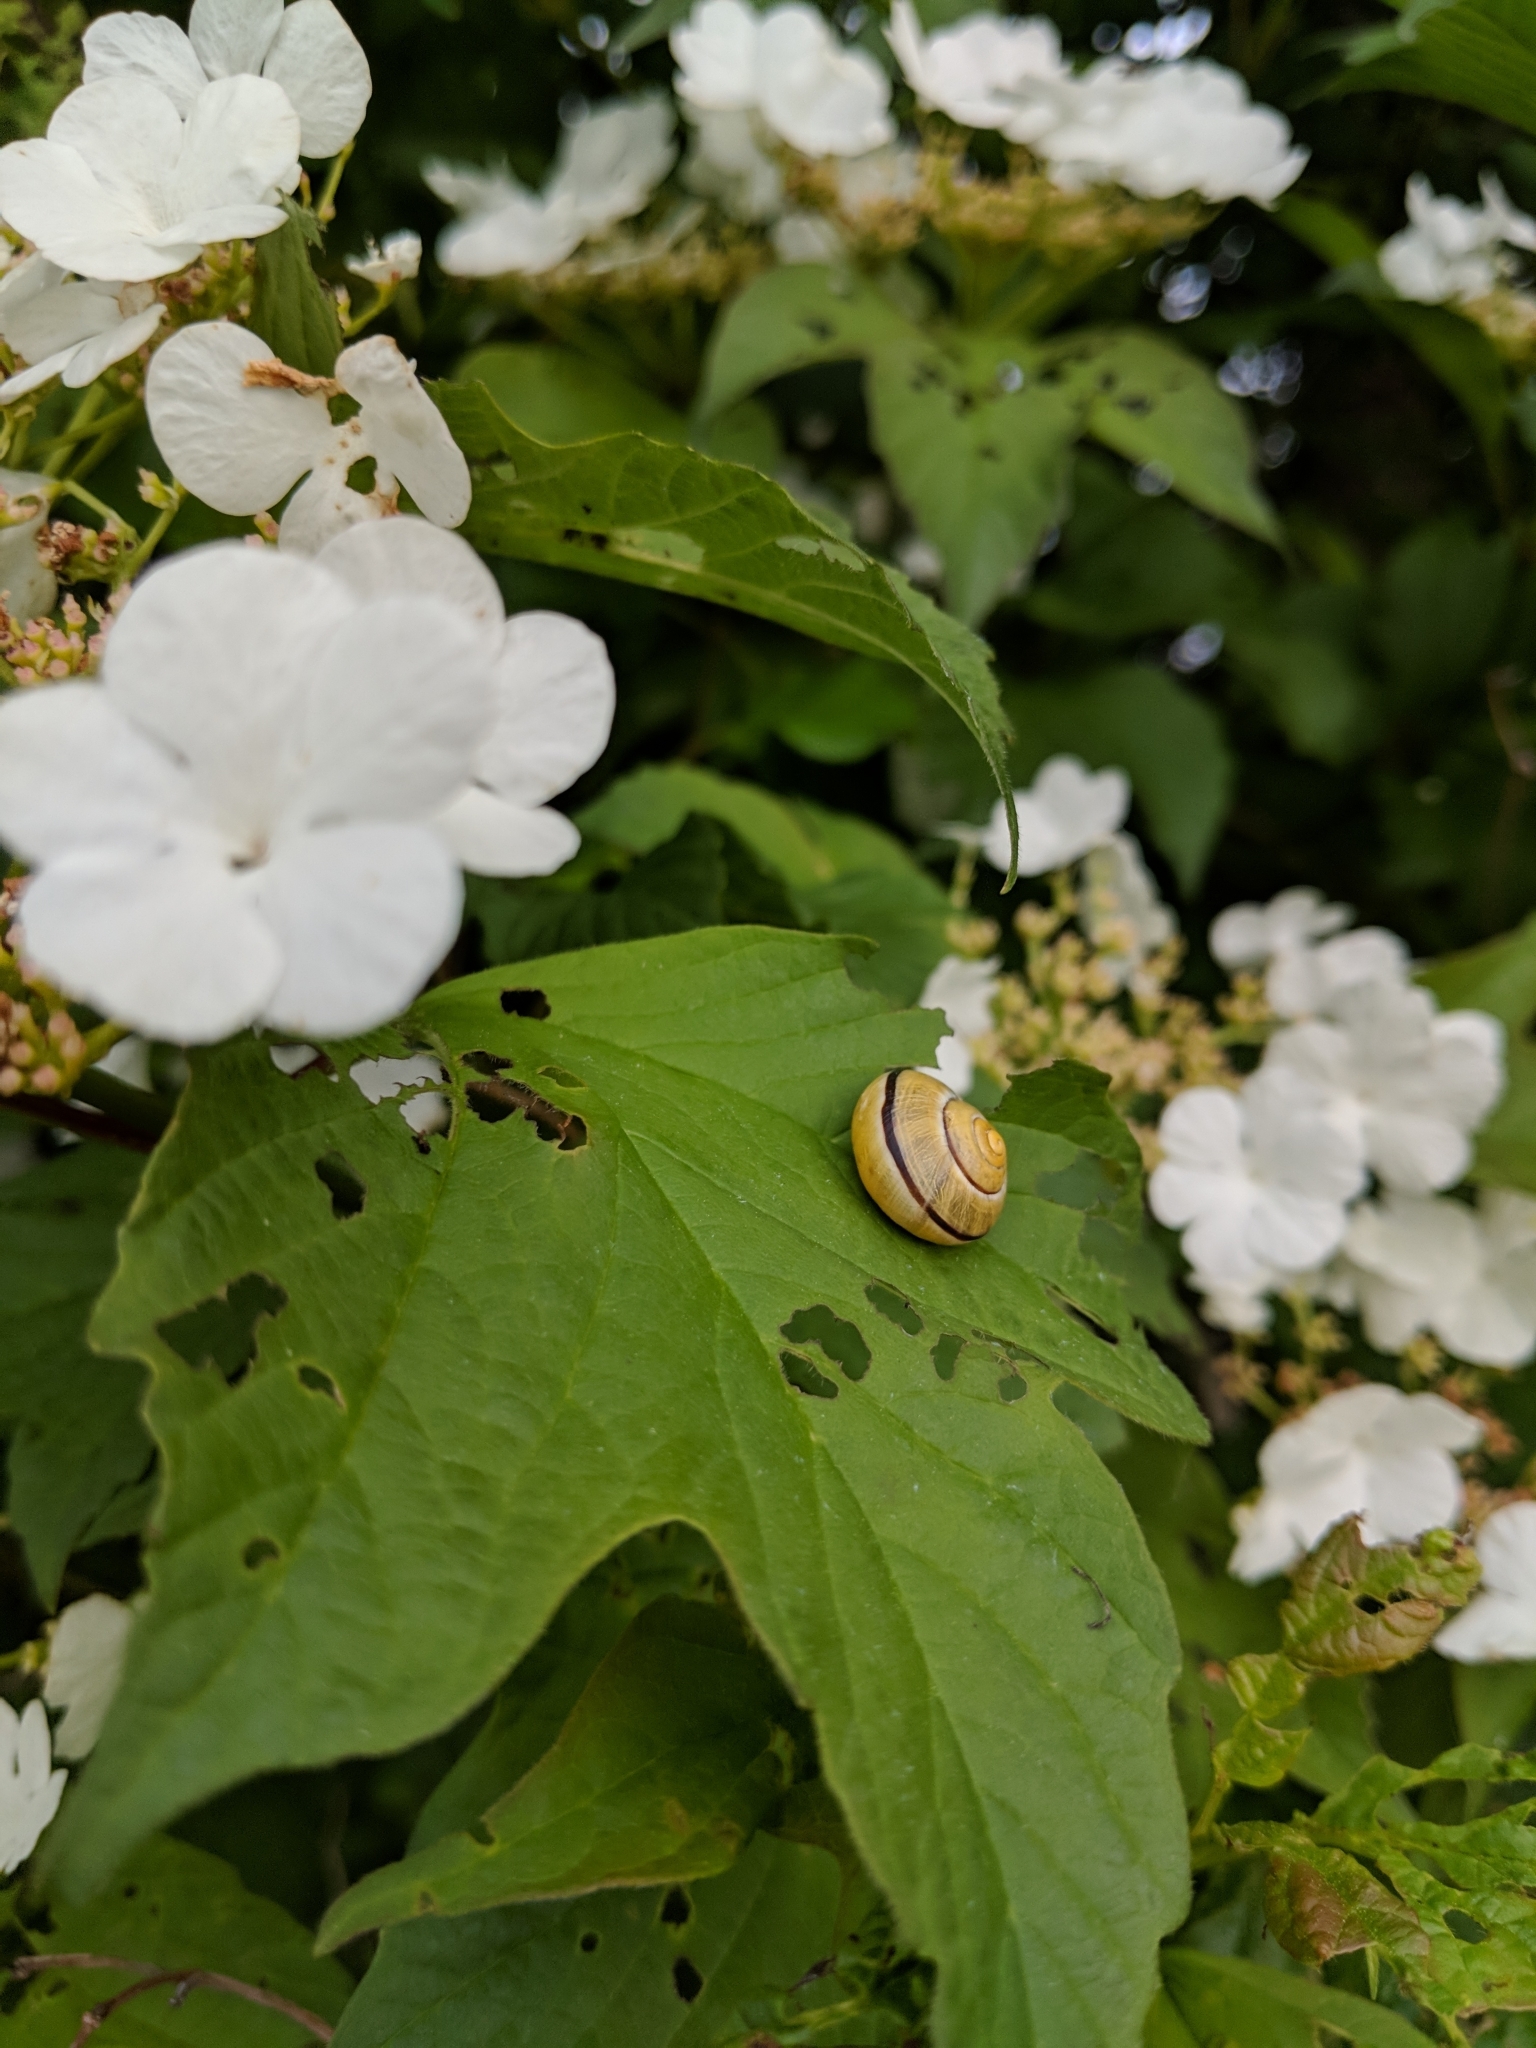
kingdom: Animalia
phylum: Mollusca
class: Gastropoda
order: Stylommatophora
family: Helicidae
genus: Cepaea
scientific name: Cepaea nemoralis
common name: Grovesnail
